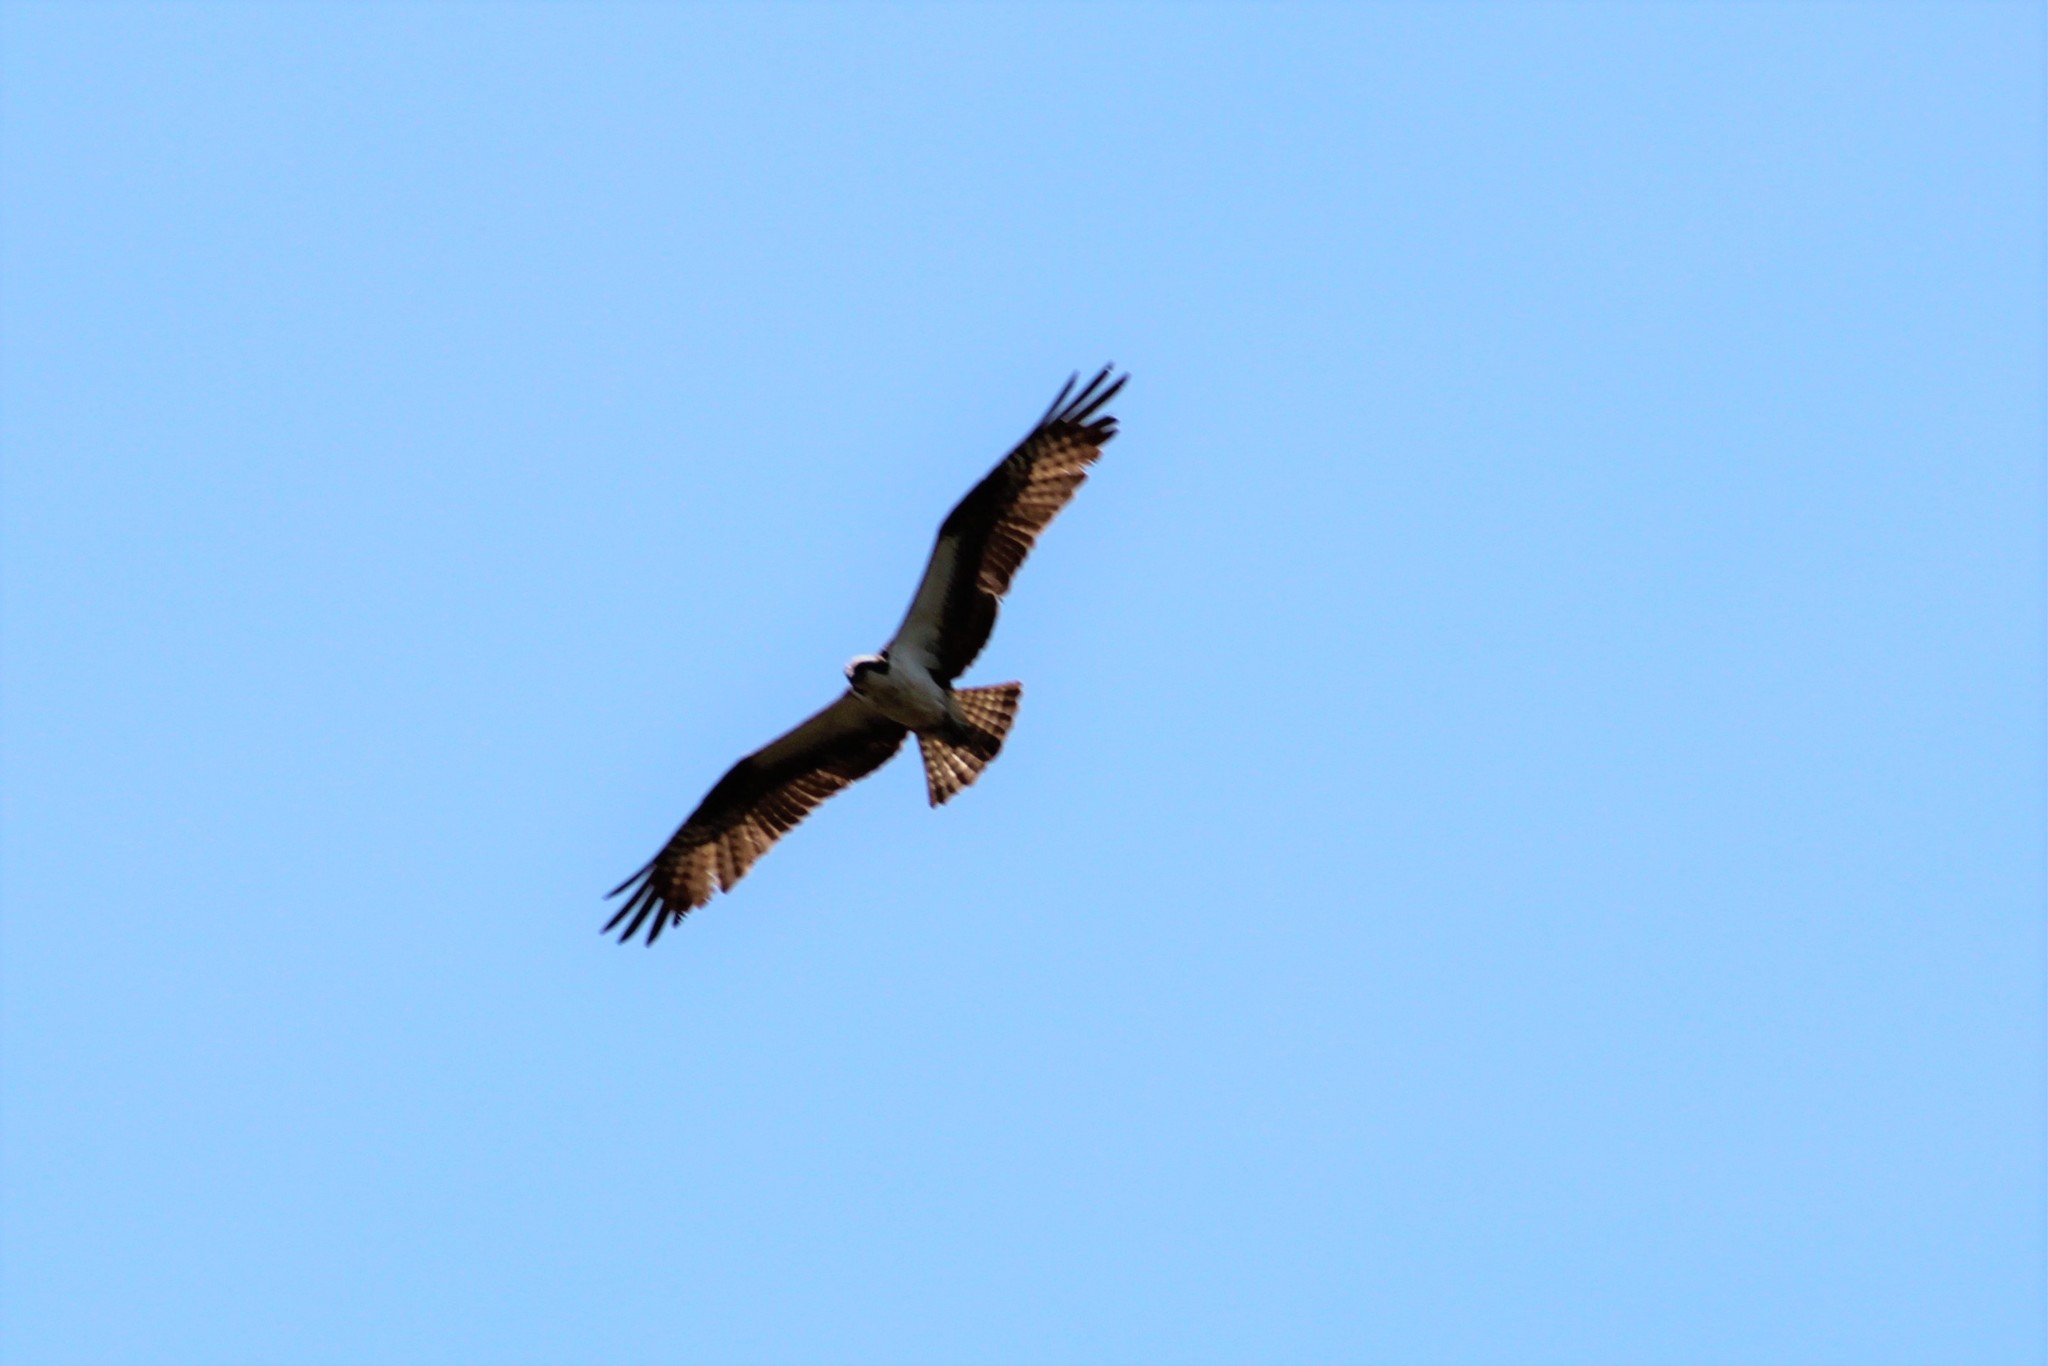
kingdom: Animalia
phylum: Chordata
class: Aves
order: Accipitriformes
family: Pandionidae
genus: Pandion
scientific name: Pandion haliaetus
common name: Osprey
